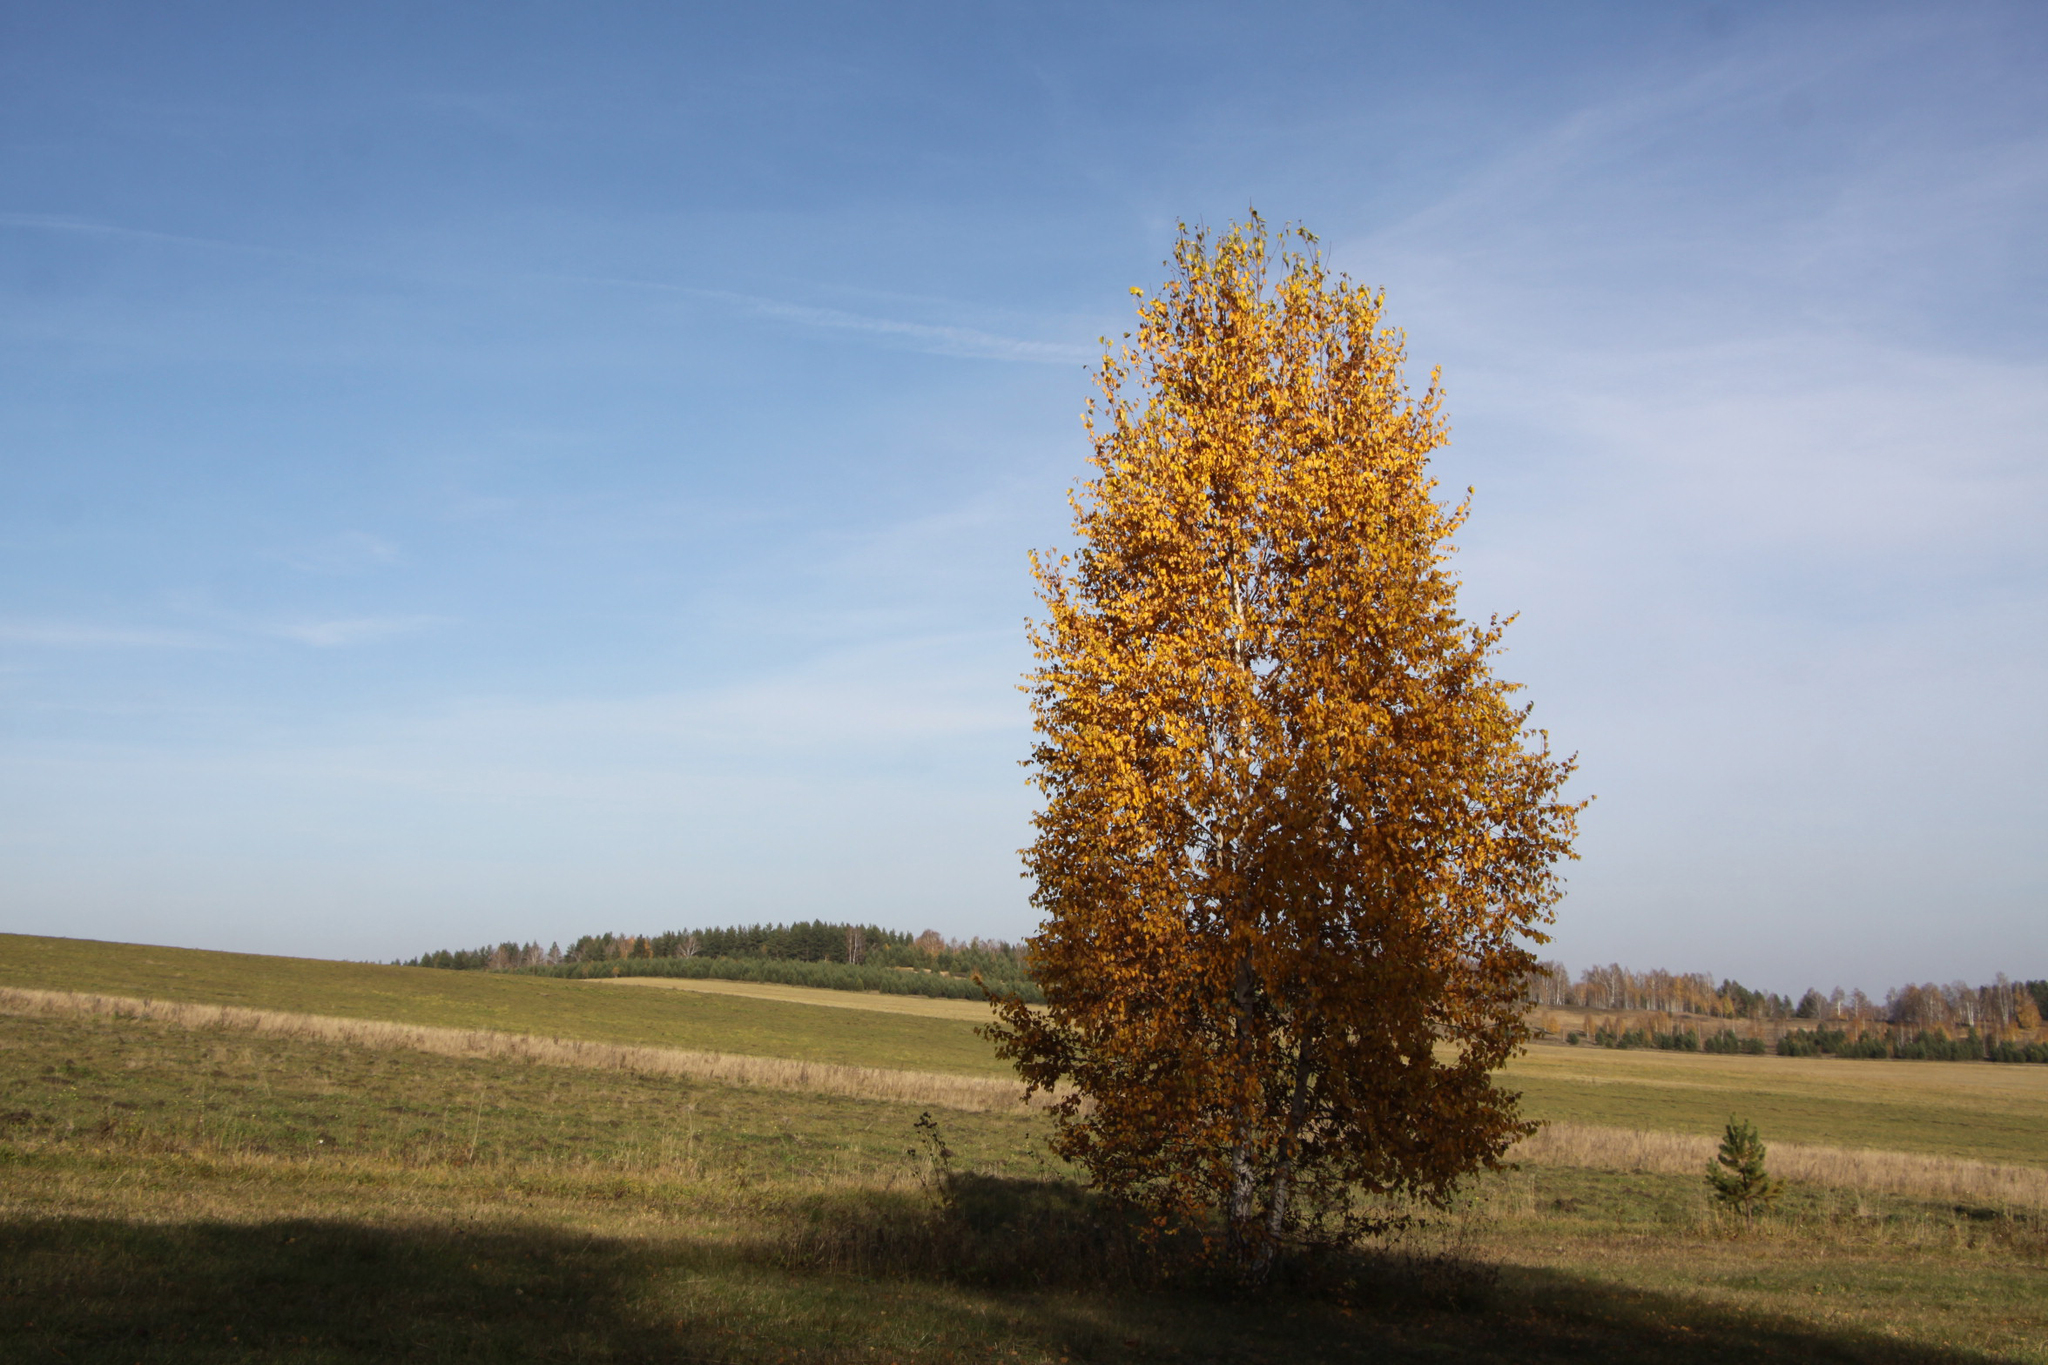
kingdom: Plantae
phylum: Tracheophyta
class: Magnoliopsida
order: Fagales
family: Betulaceae
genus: Betula
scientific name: Betula pendula
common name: Silver birch
